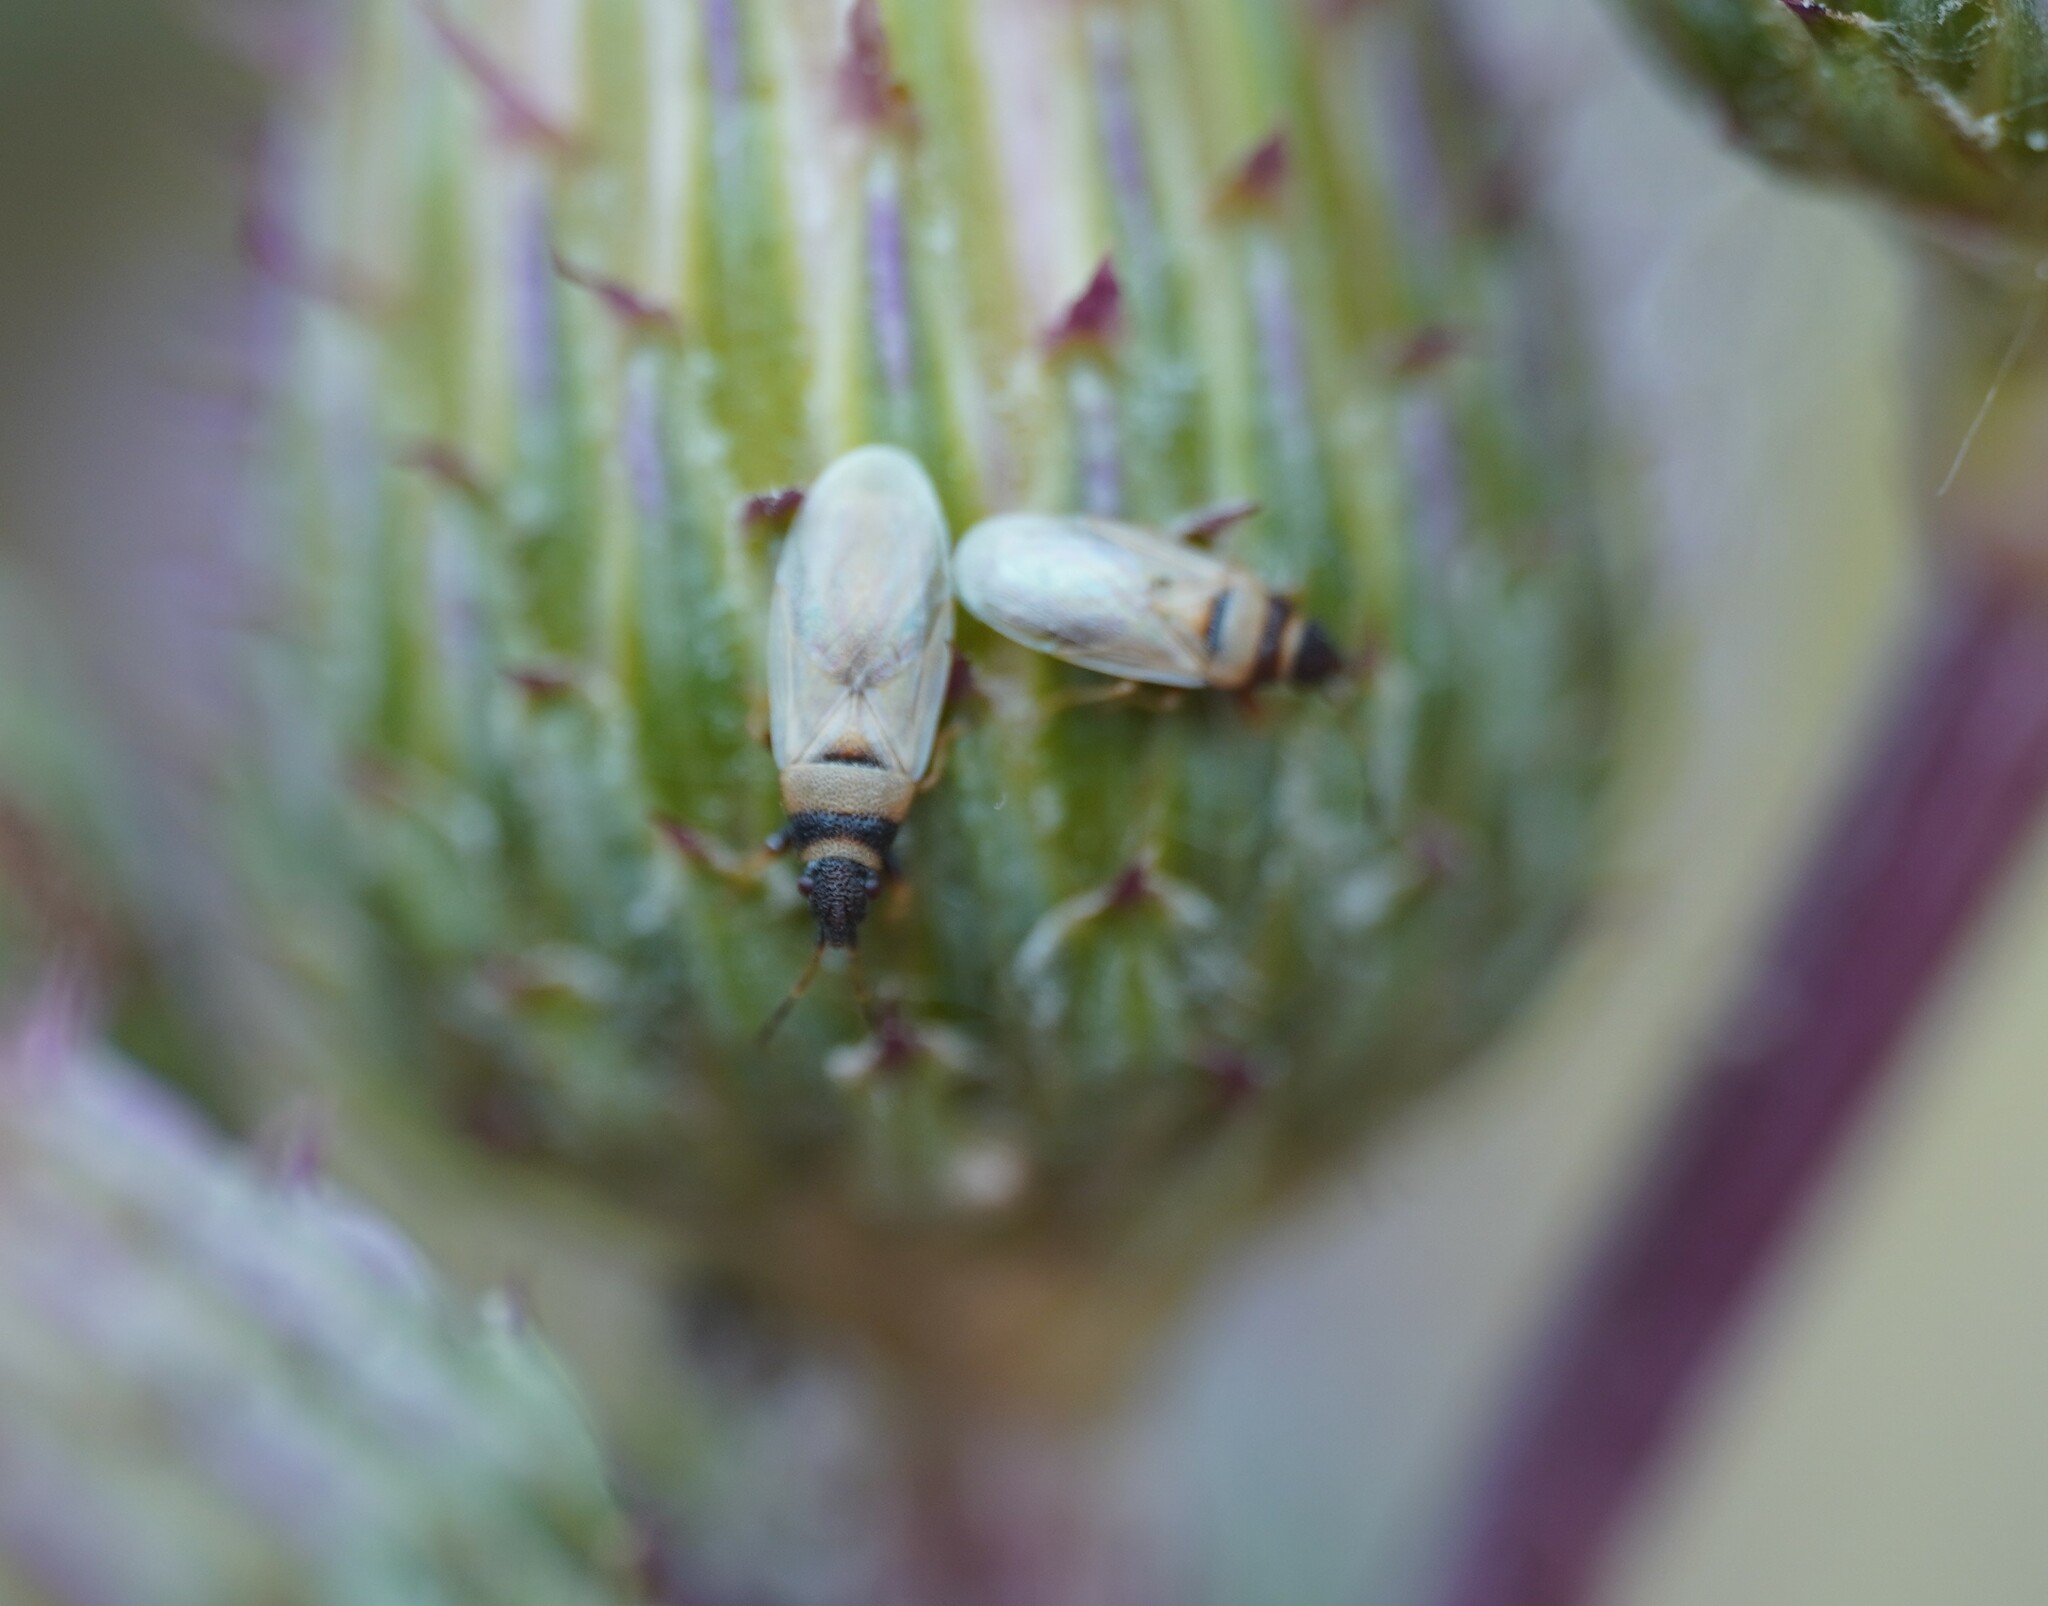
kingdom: Animalia
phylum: Arthropoda
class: Insecta
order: Hemiptera
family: Oxycarenidae
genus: Oxycarenus
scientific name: Oxycarenus pallens
